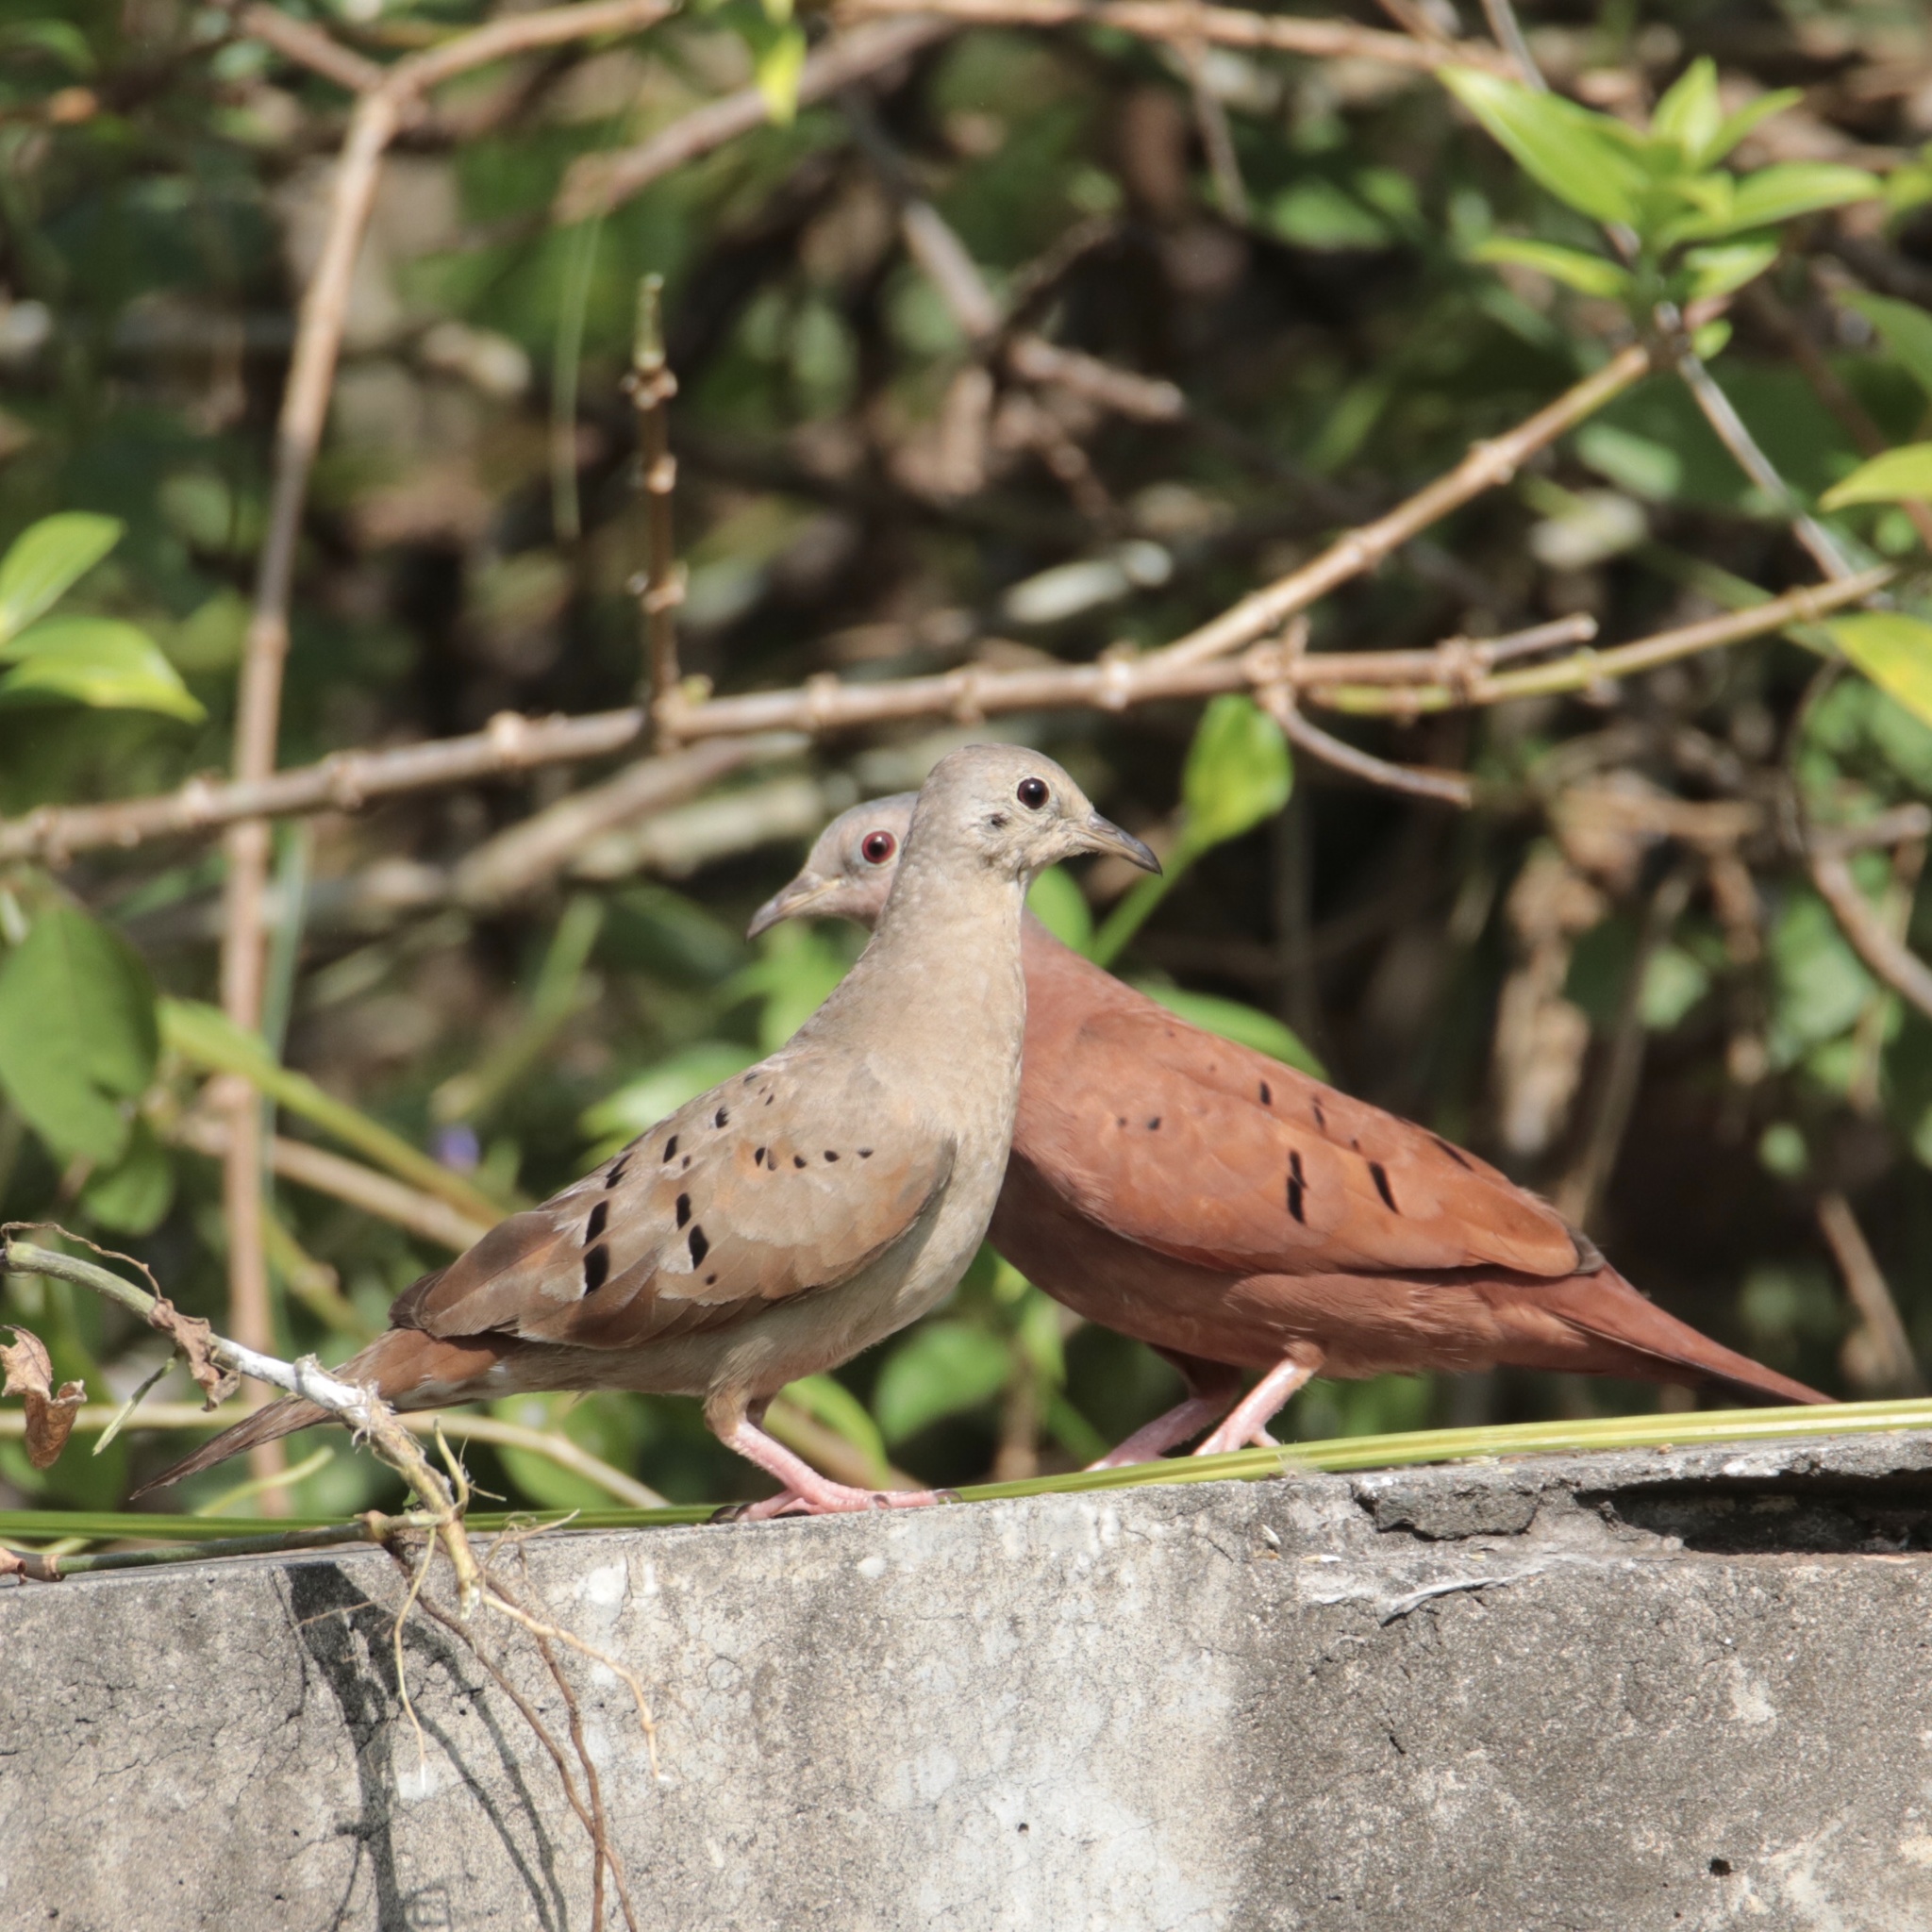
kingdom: Animalia
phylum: Chordata
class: Aves
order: Columbiformes
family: Columbidae
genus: Columbina
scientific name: Columbina talpacoti
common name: Ruddy ground dove
